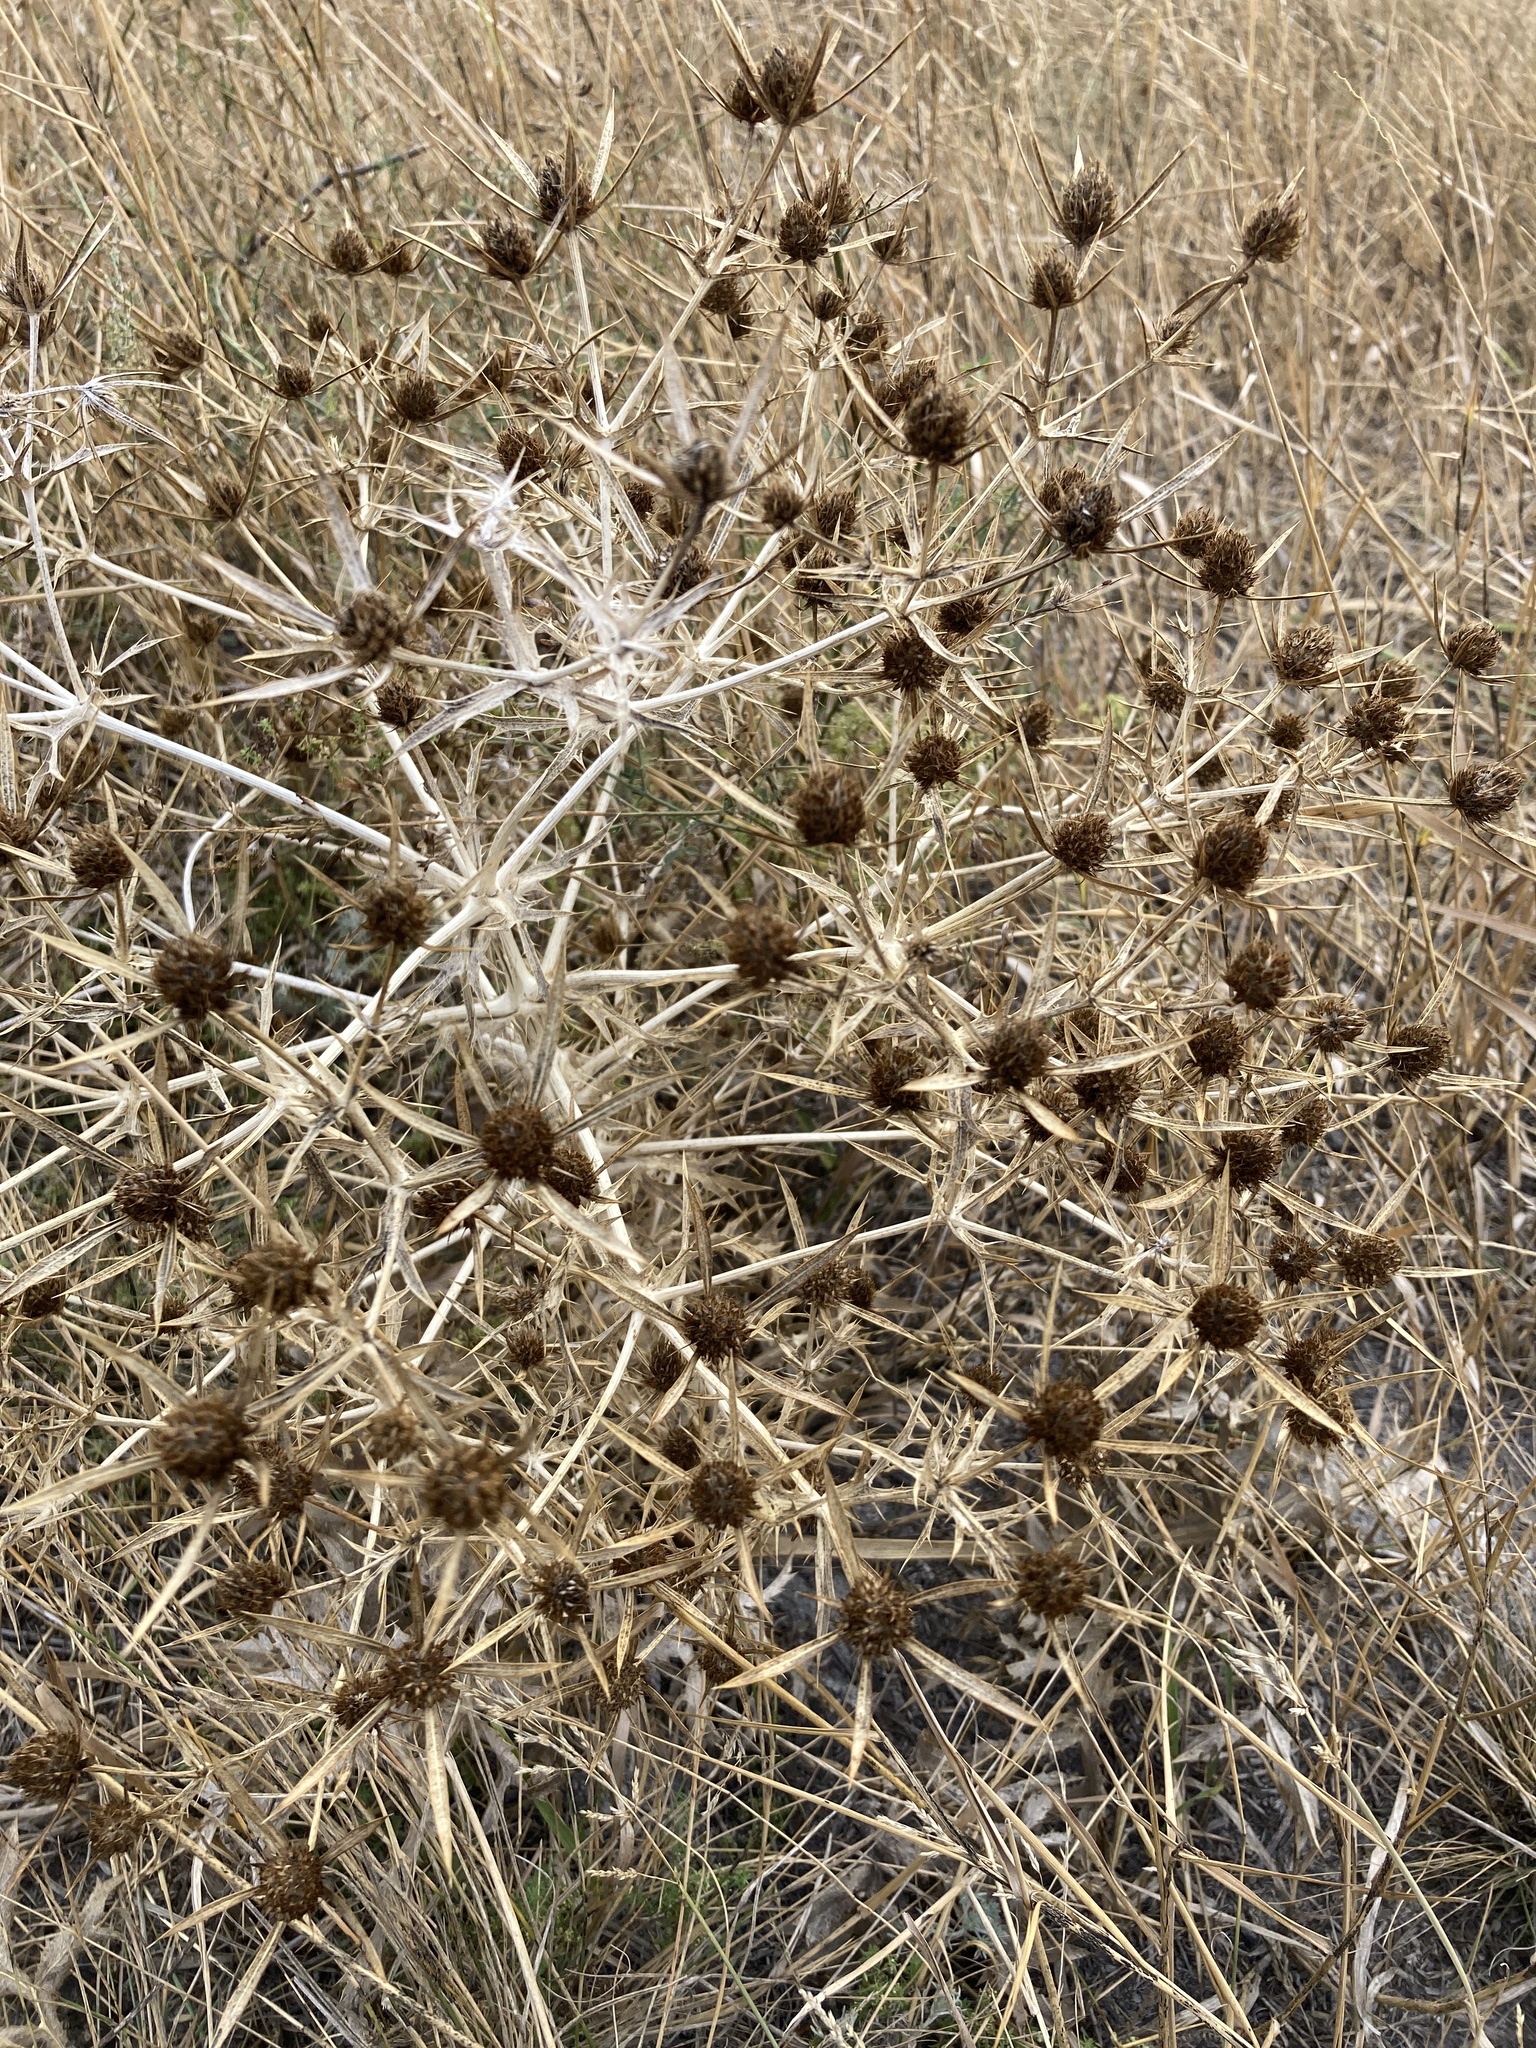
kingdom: Plantae
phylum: Tracheophyta
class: Magnoliopsida
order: Apiales
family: Apiaceae
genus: Eryngium
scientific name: Eryngium campestre
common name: Field eryngo
